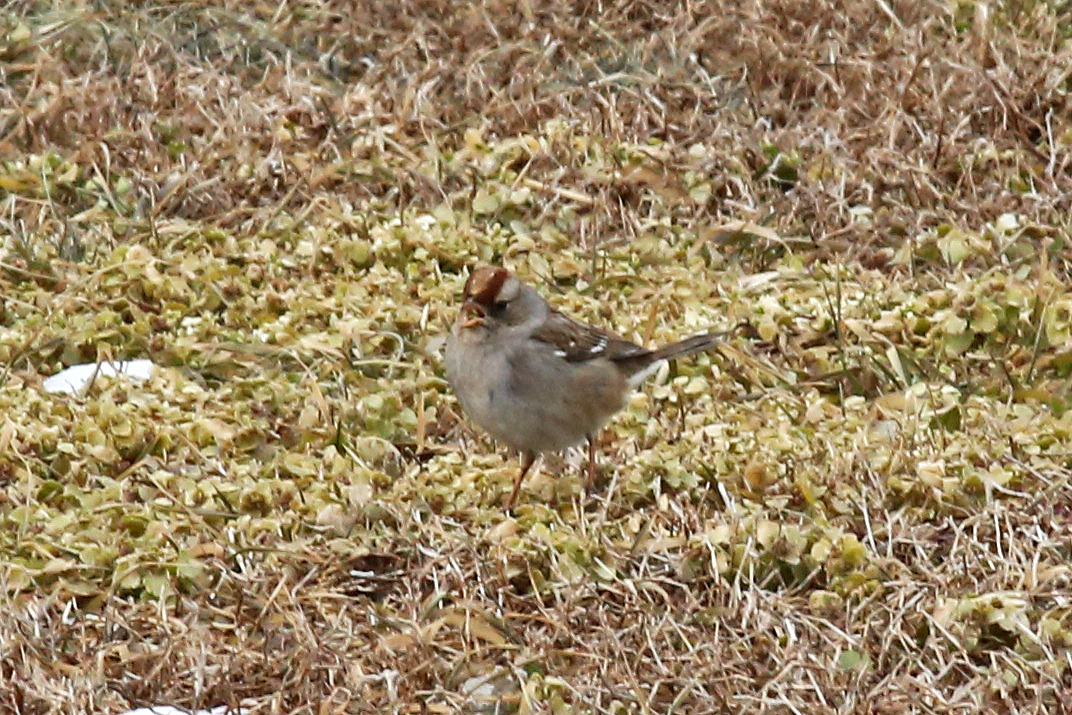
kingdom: Animalia
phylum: Chordata
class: Aves
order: Passeriformes
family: Passerellidae
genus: Zonotrichia
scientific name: Zonotrichia leucophrys
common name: White-crowned sparrow
